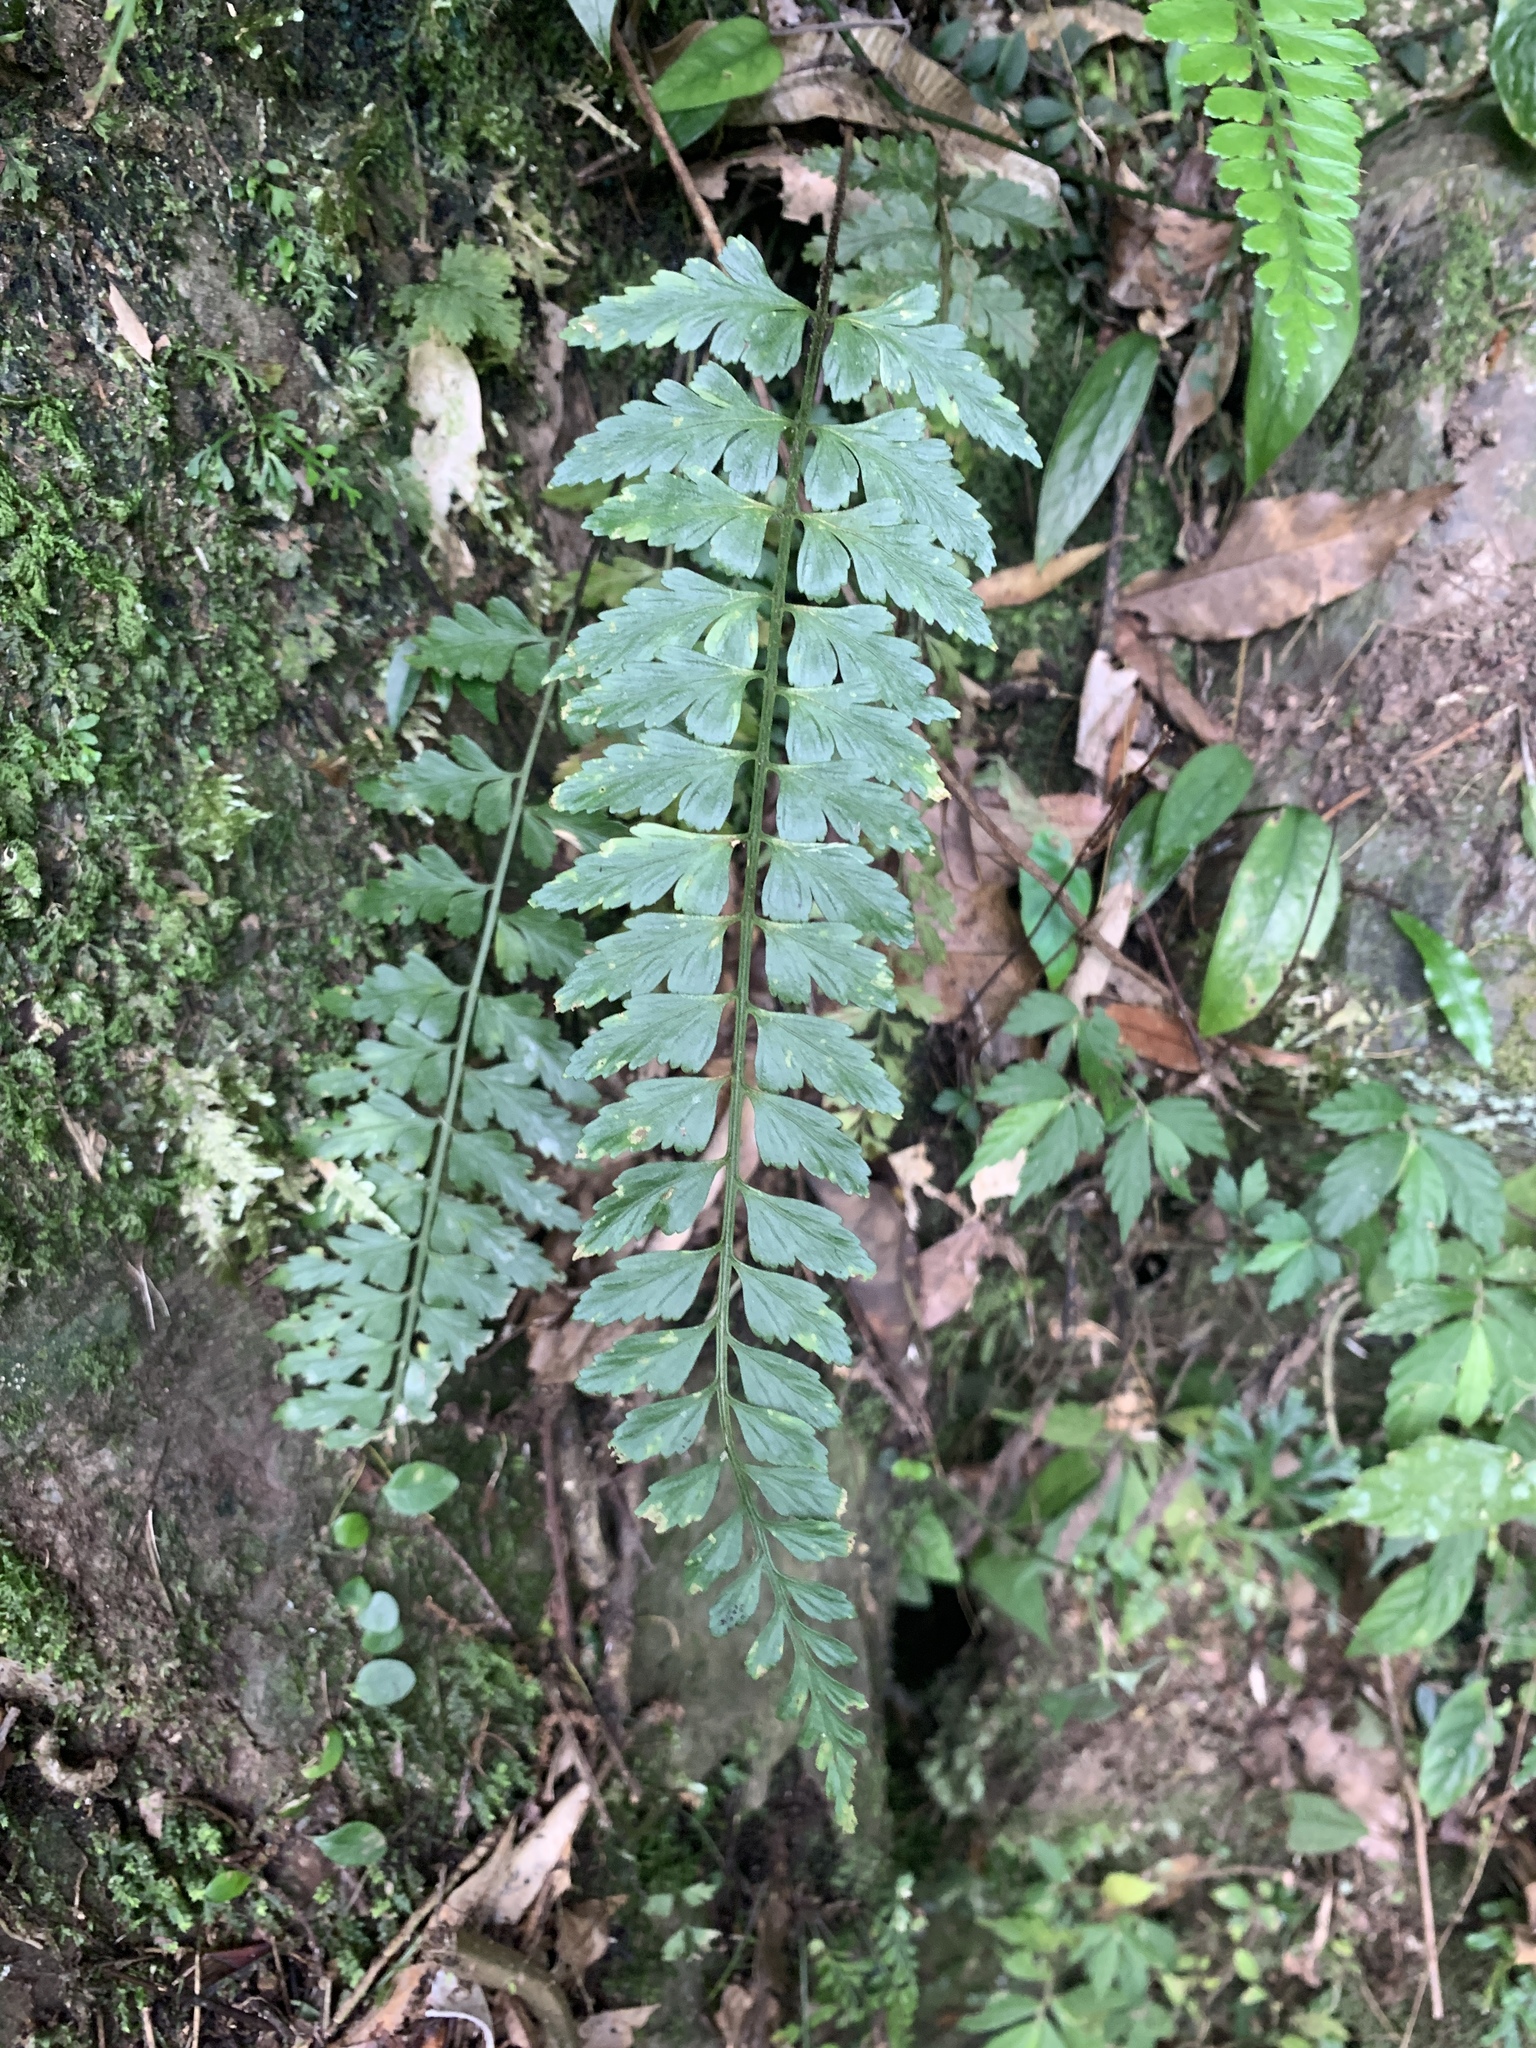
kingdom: Plantae
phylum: Tracheophyta
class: Polypodiopsida
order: Polypodiales
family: Aspleniaceae
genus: Asplenium
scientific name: Asplenium cuneatiforme
